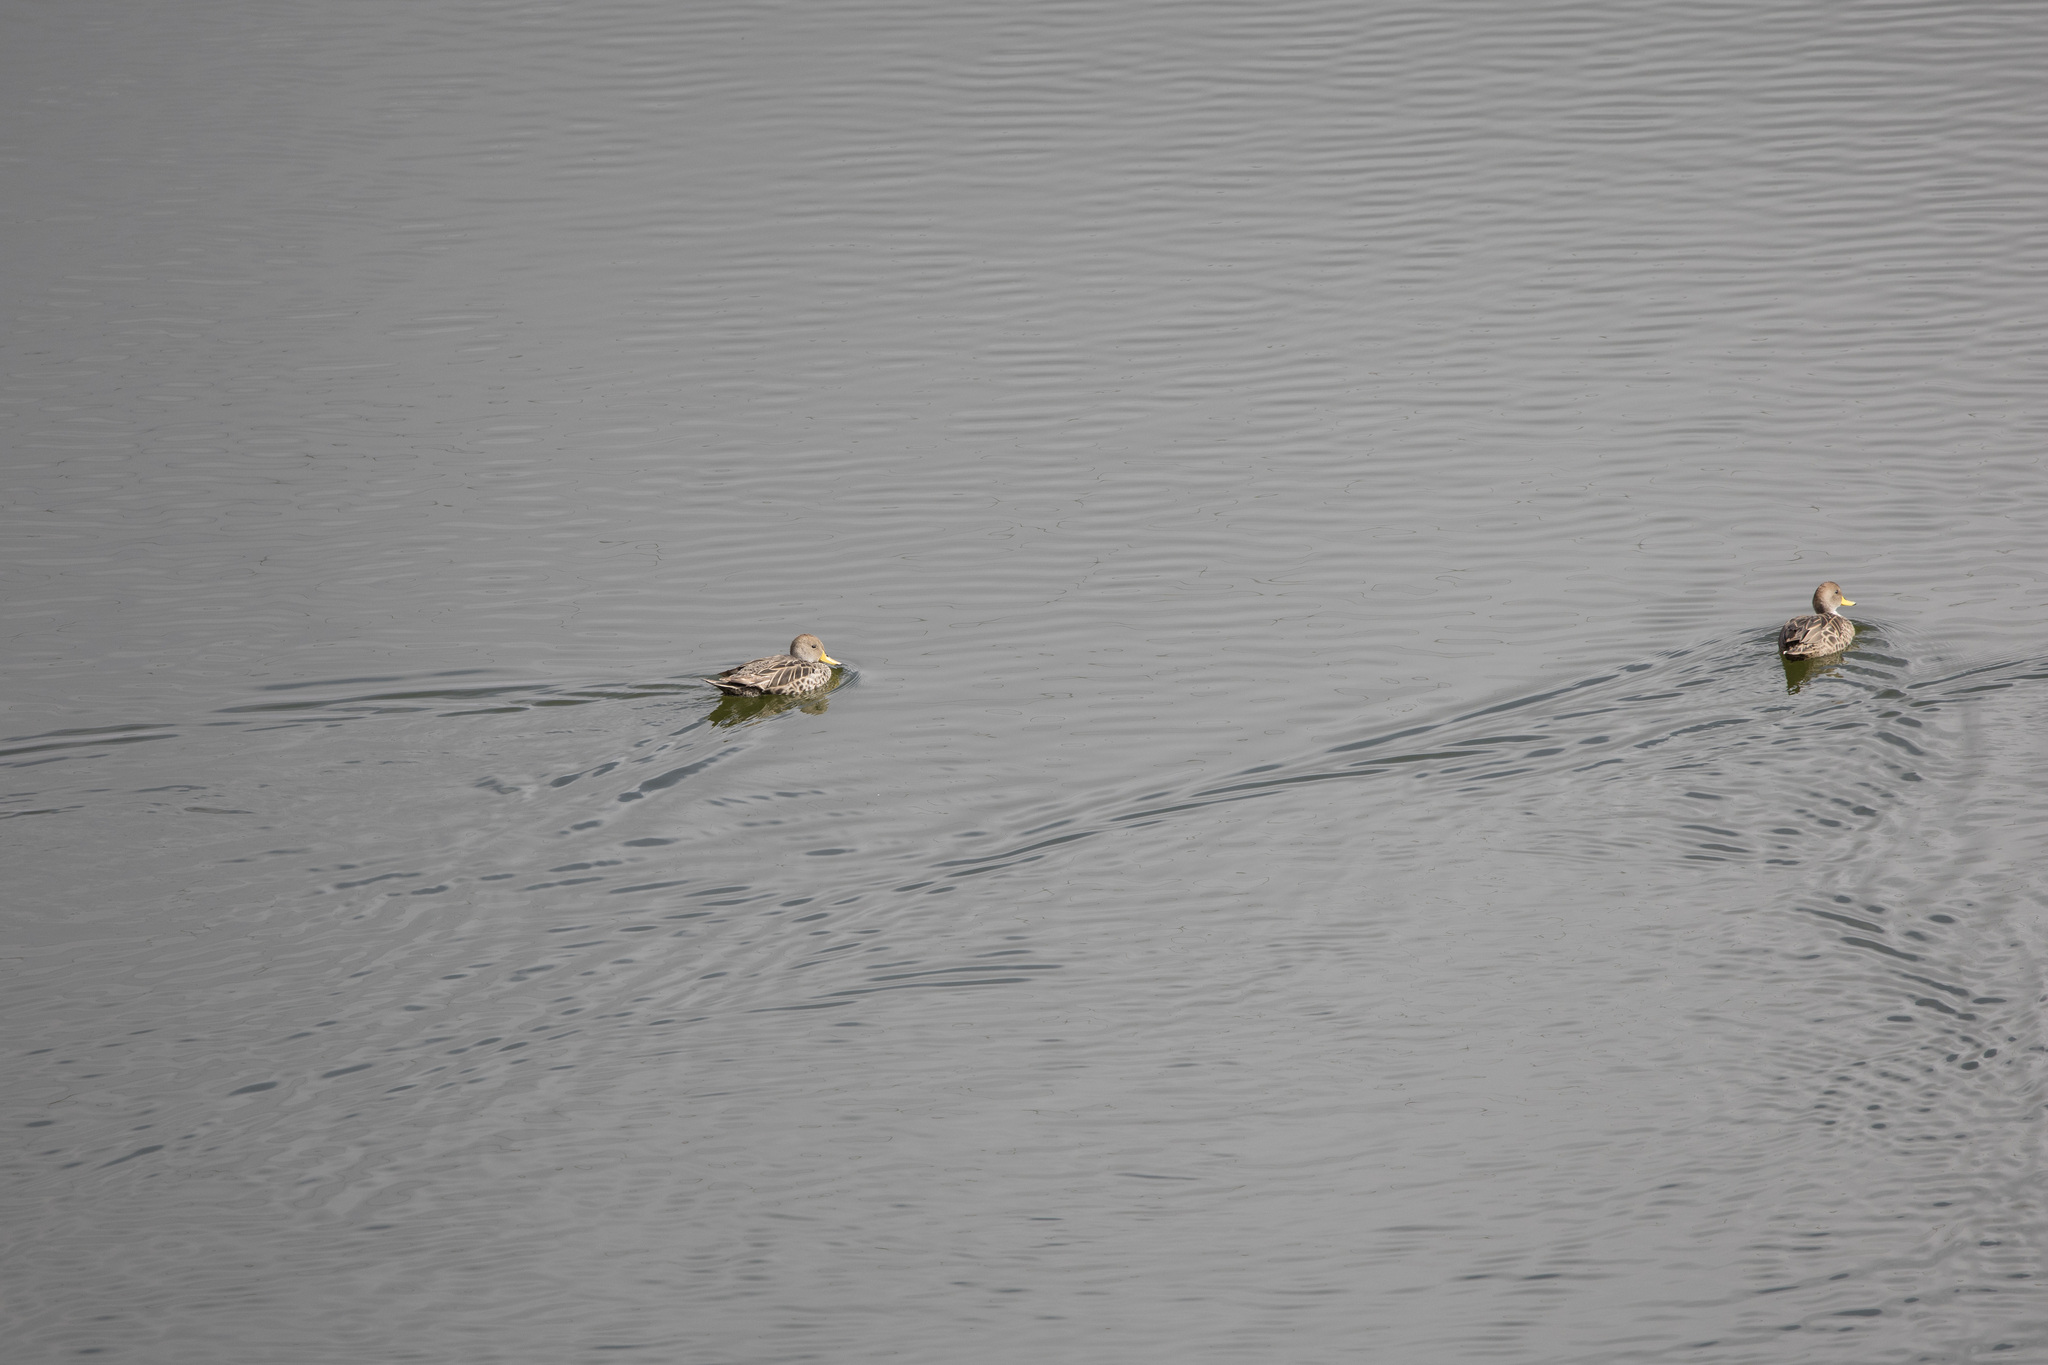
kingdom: Animalia
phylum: Chordata
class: Aves
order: Anseriformes
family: Anatidae
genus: Anas
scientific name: Anas georgica
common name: Yellow-billed pintail
